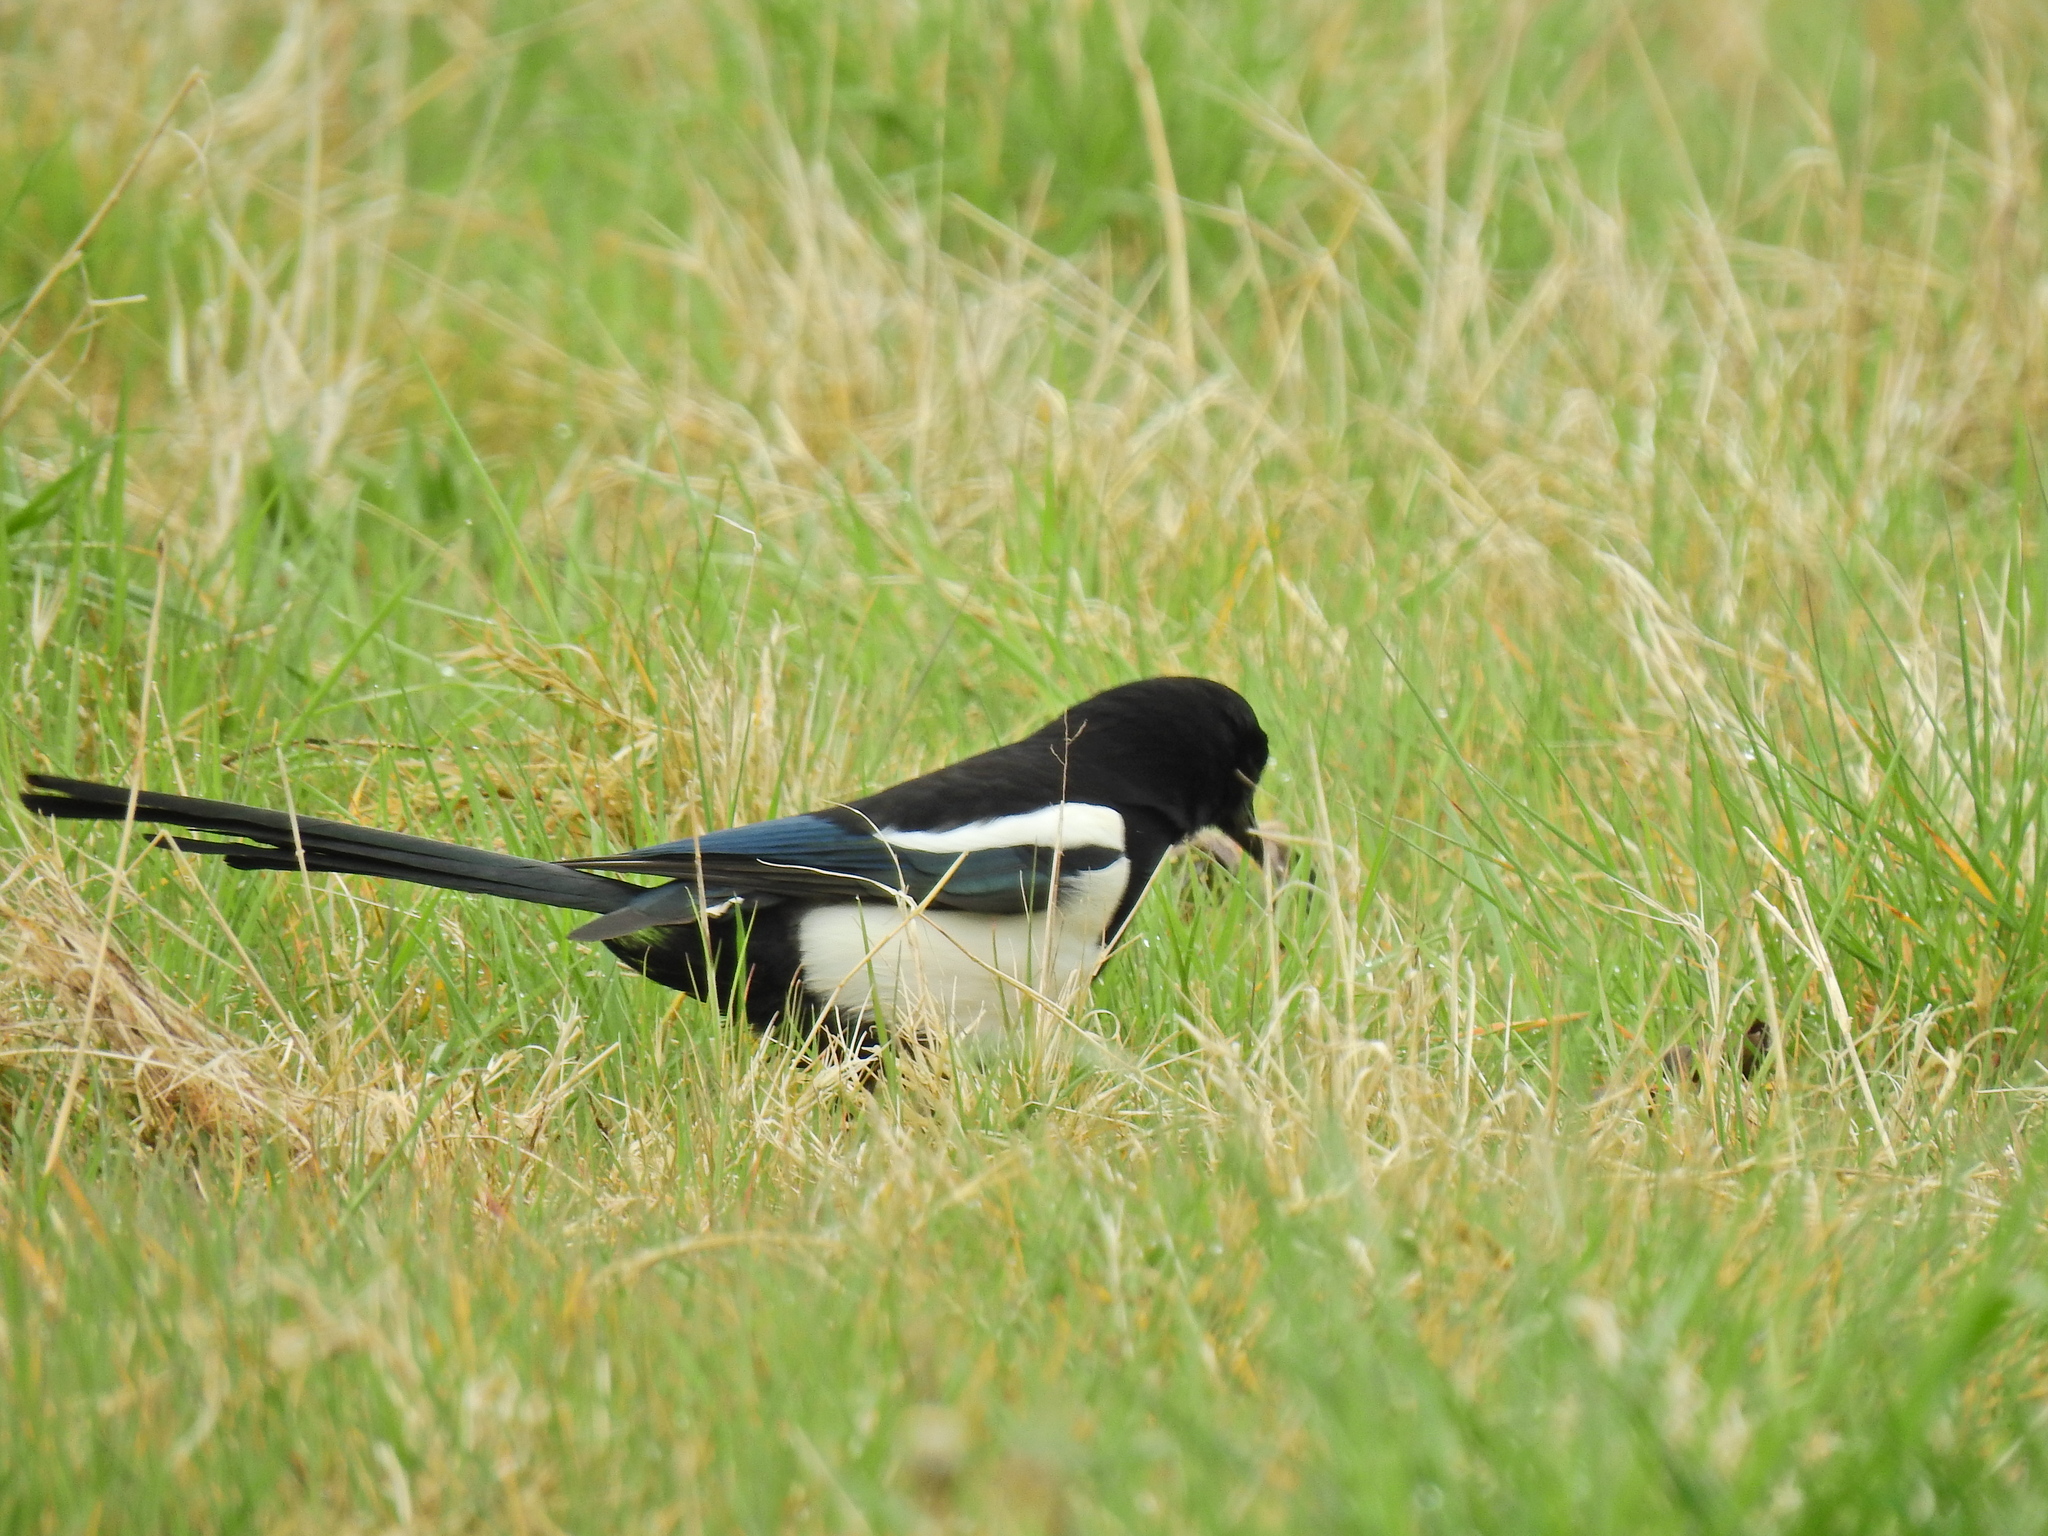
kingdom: Animalia
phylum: Chordata
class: Aves
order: Passeriformes
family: Corvidae
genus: Pica
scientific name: Pica pica
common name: Eurasian magpie
